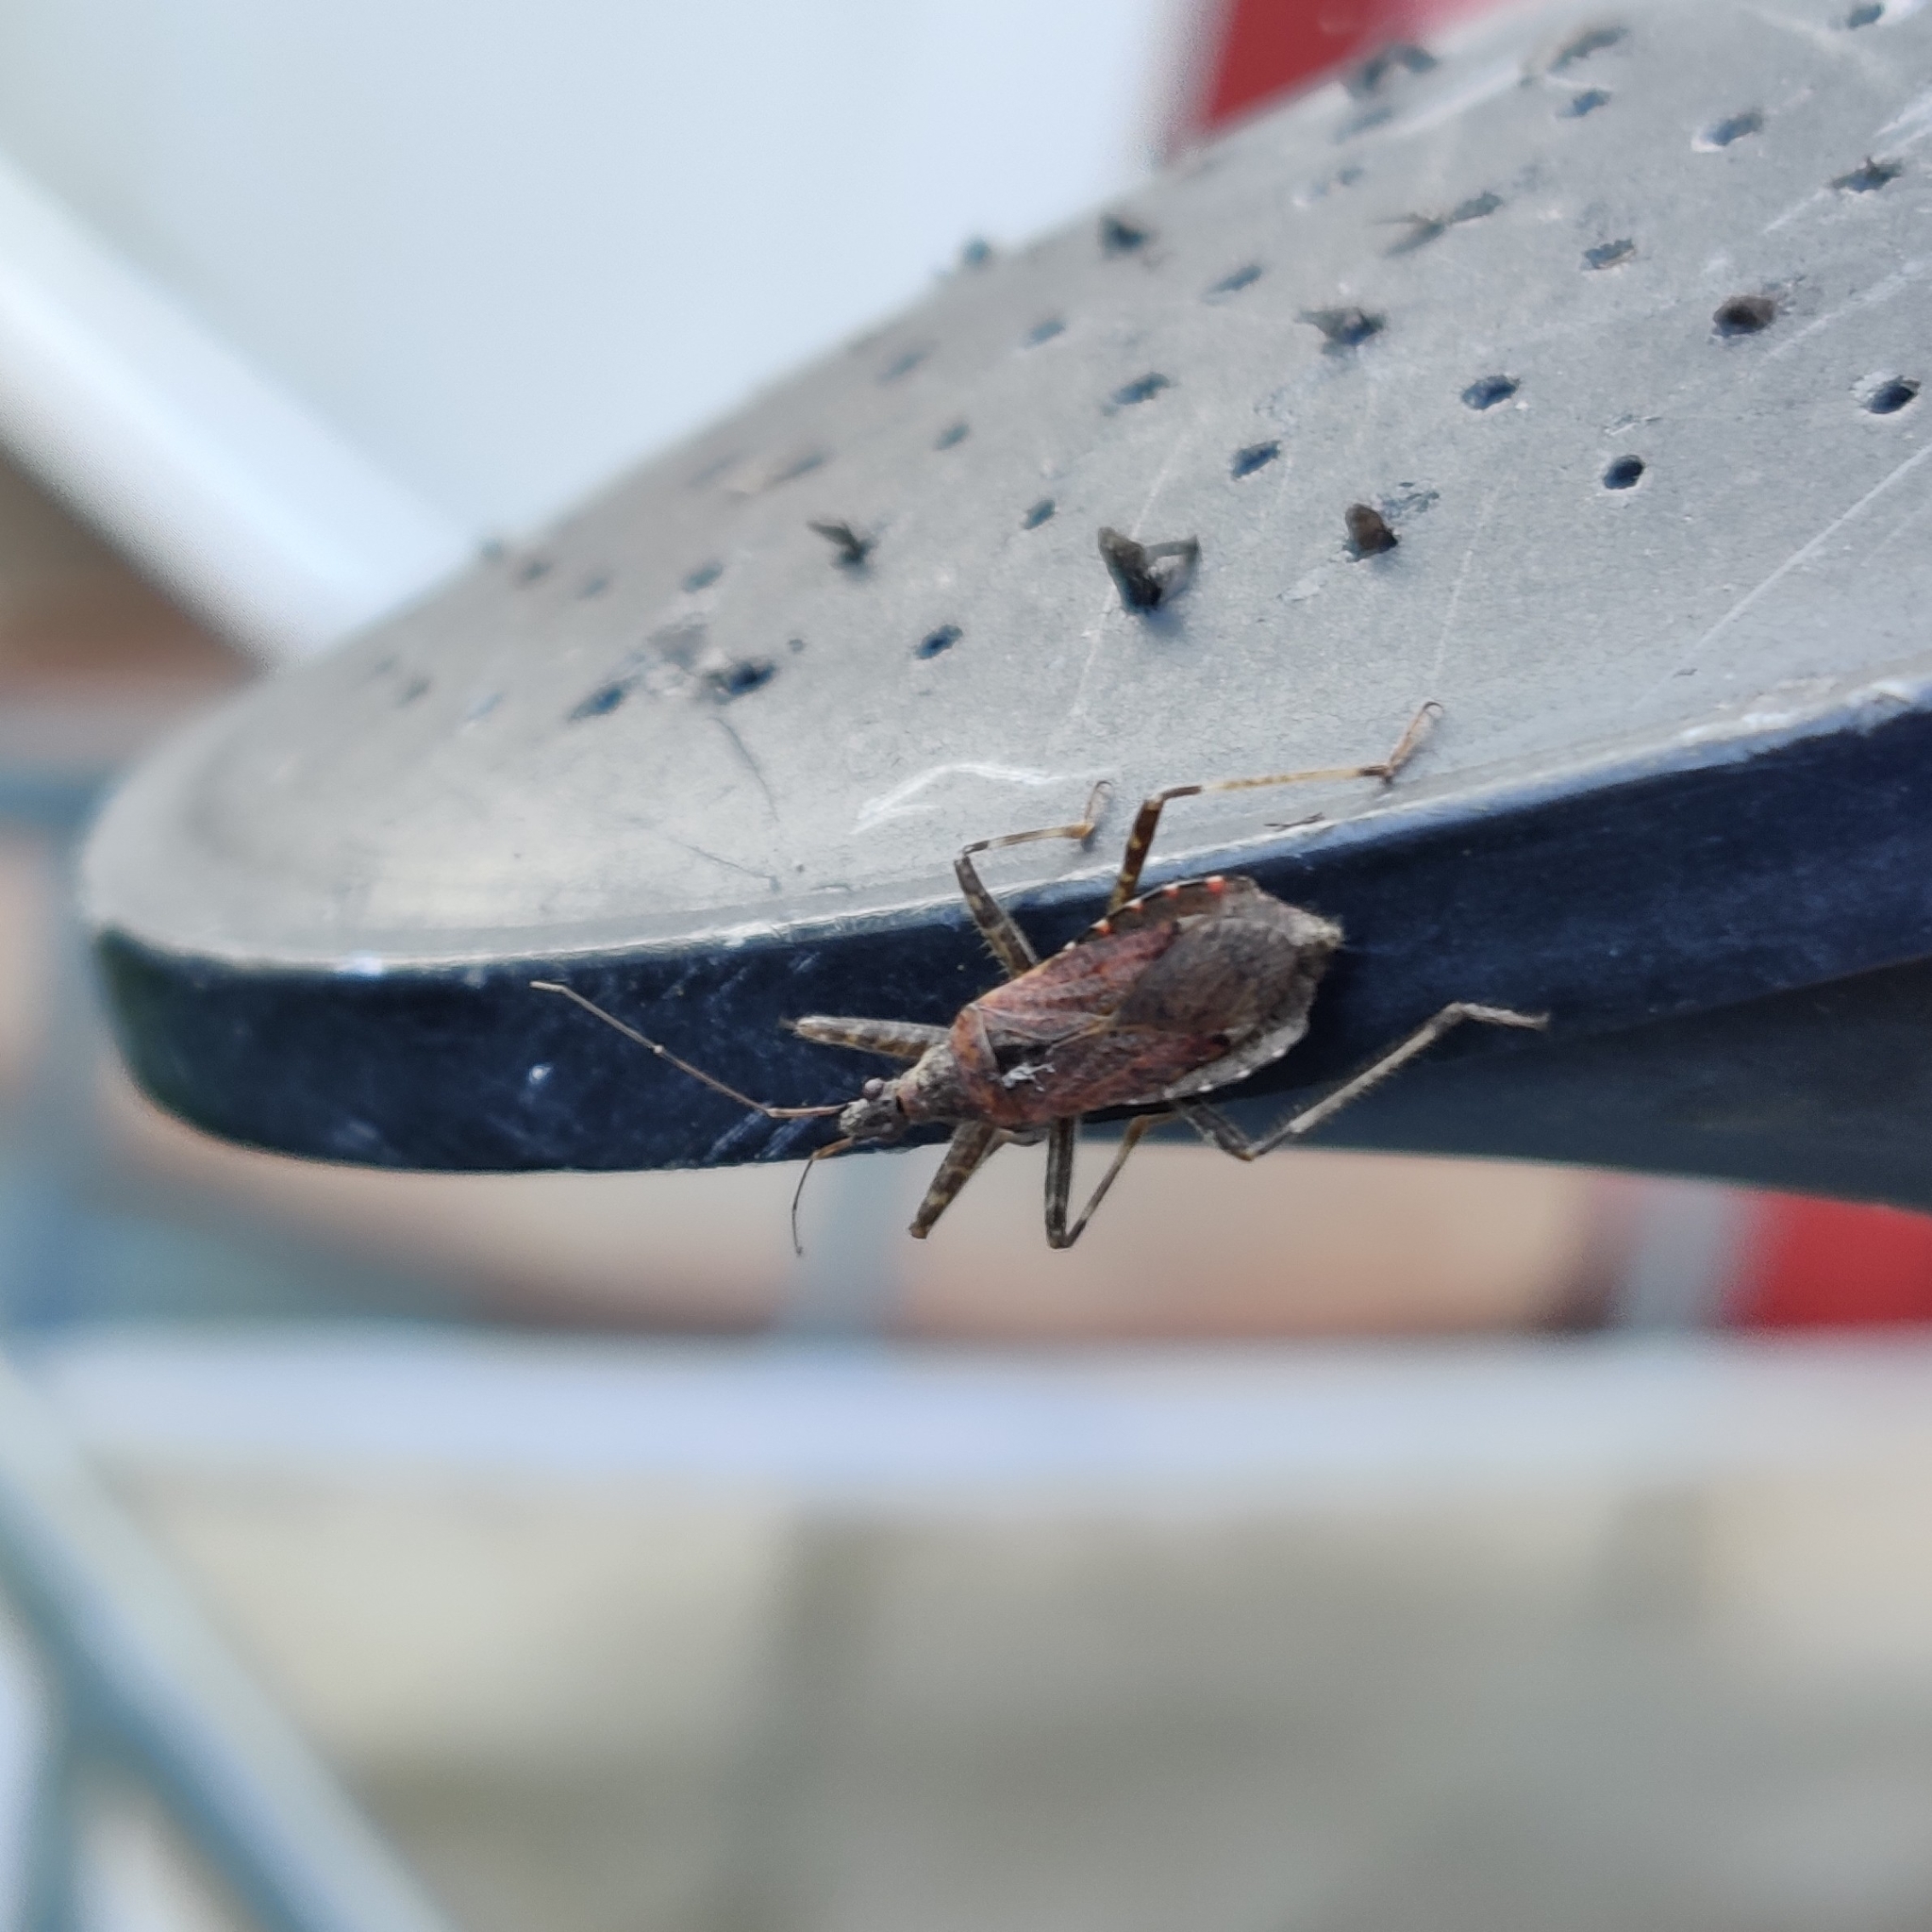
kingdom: Animalia
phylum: Arthropoda
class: Insecta
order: Hemiptera
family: Nabidae
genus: Himacerus
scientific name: Himacerus apterus
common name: Tree damsel bug
